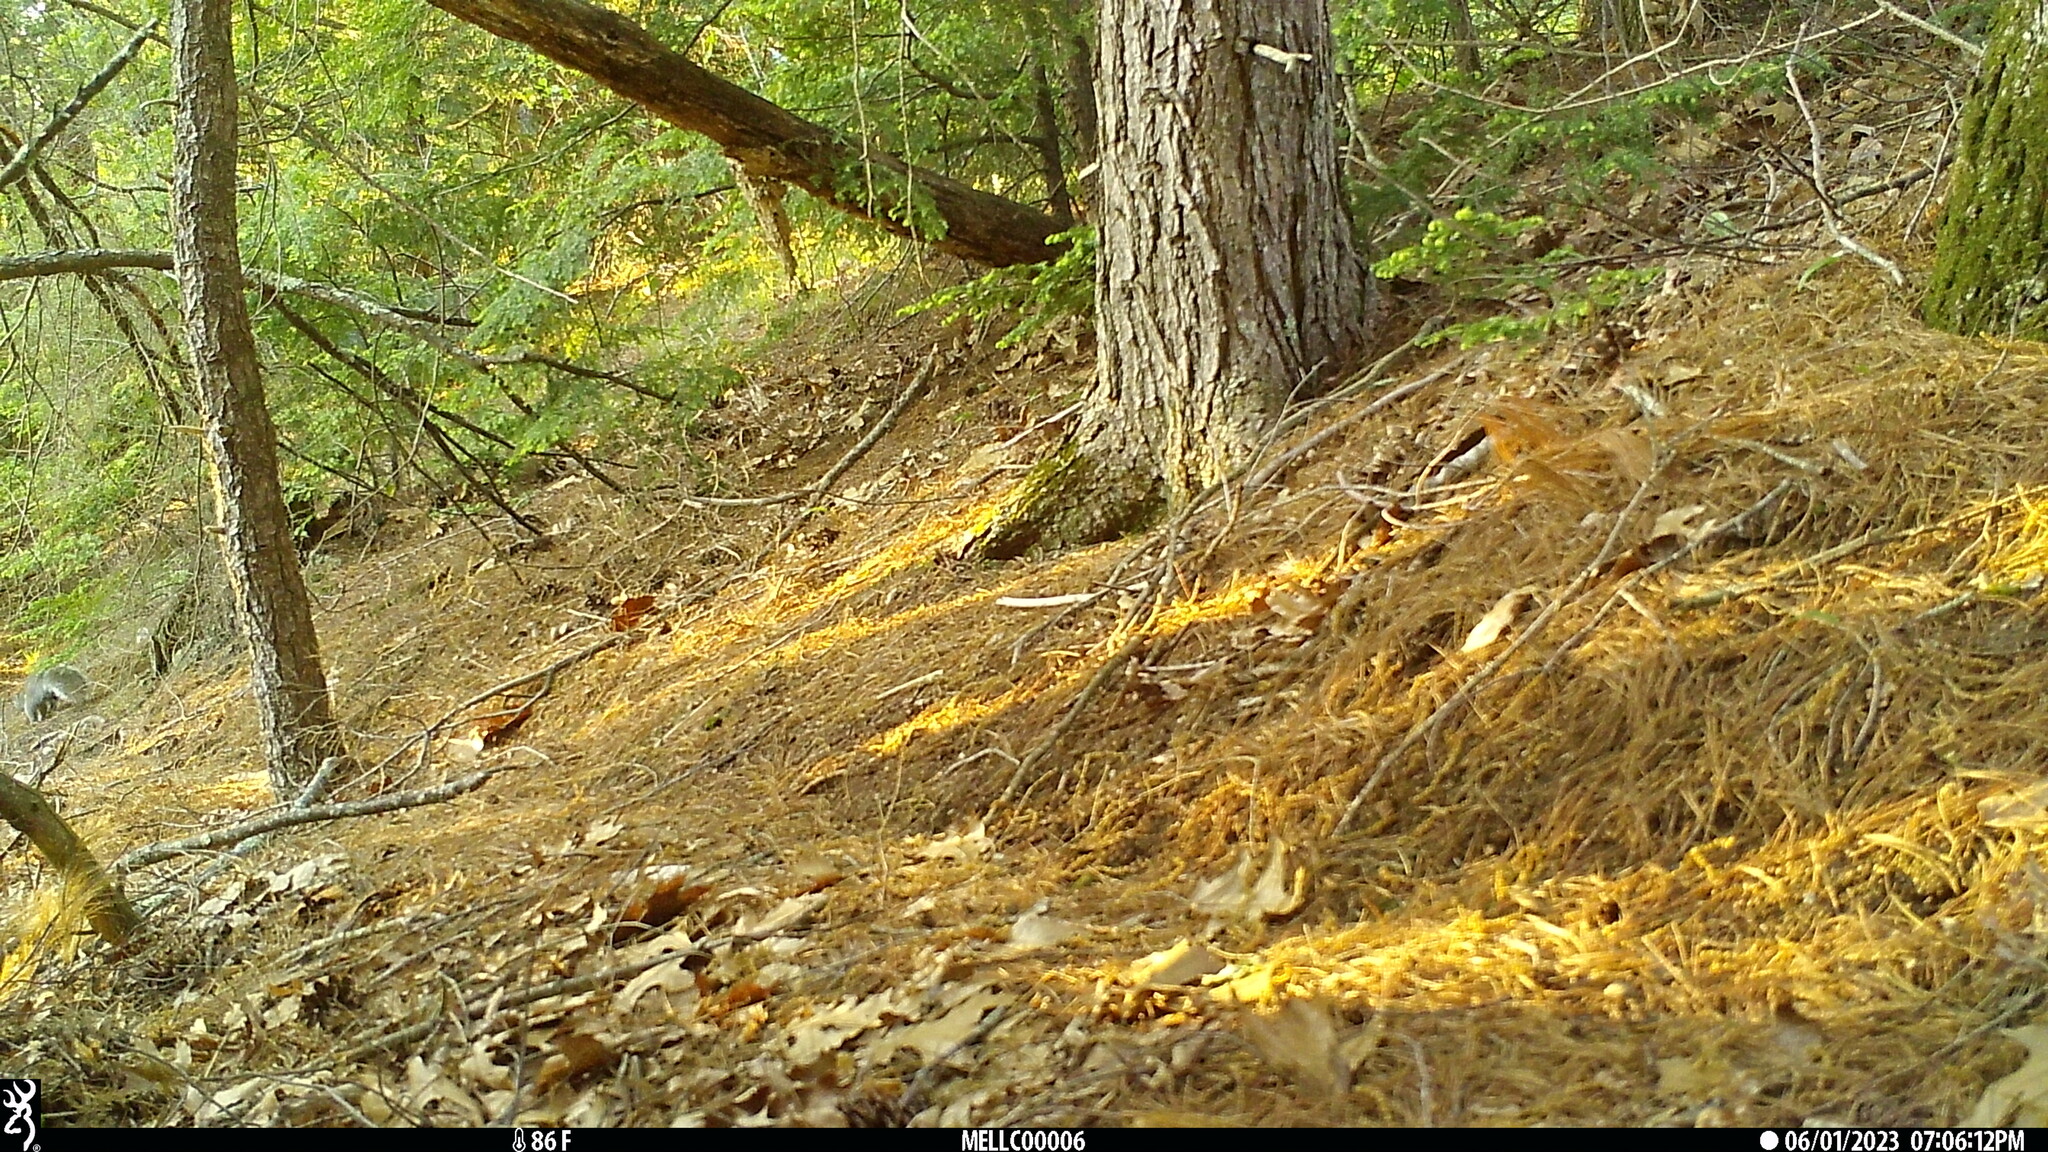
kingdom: Animalia
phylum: Chordata
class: Mammalia
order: Rodentia
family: Sciuridae
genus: Sciurus
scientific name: Sciurus carolinensis
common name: Eastern gray squirrel
